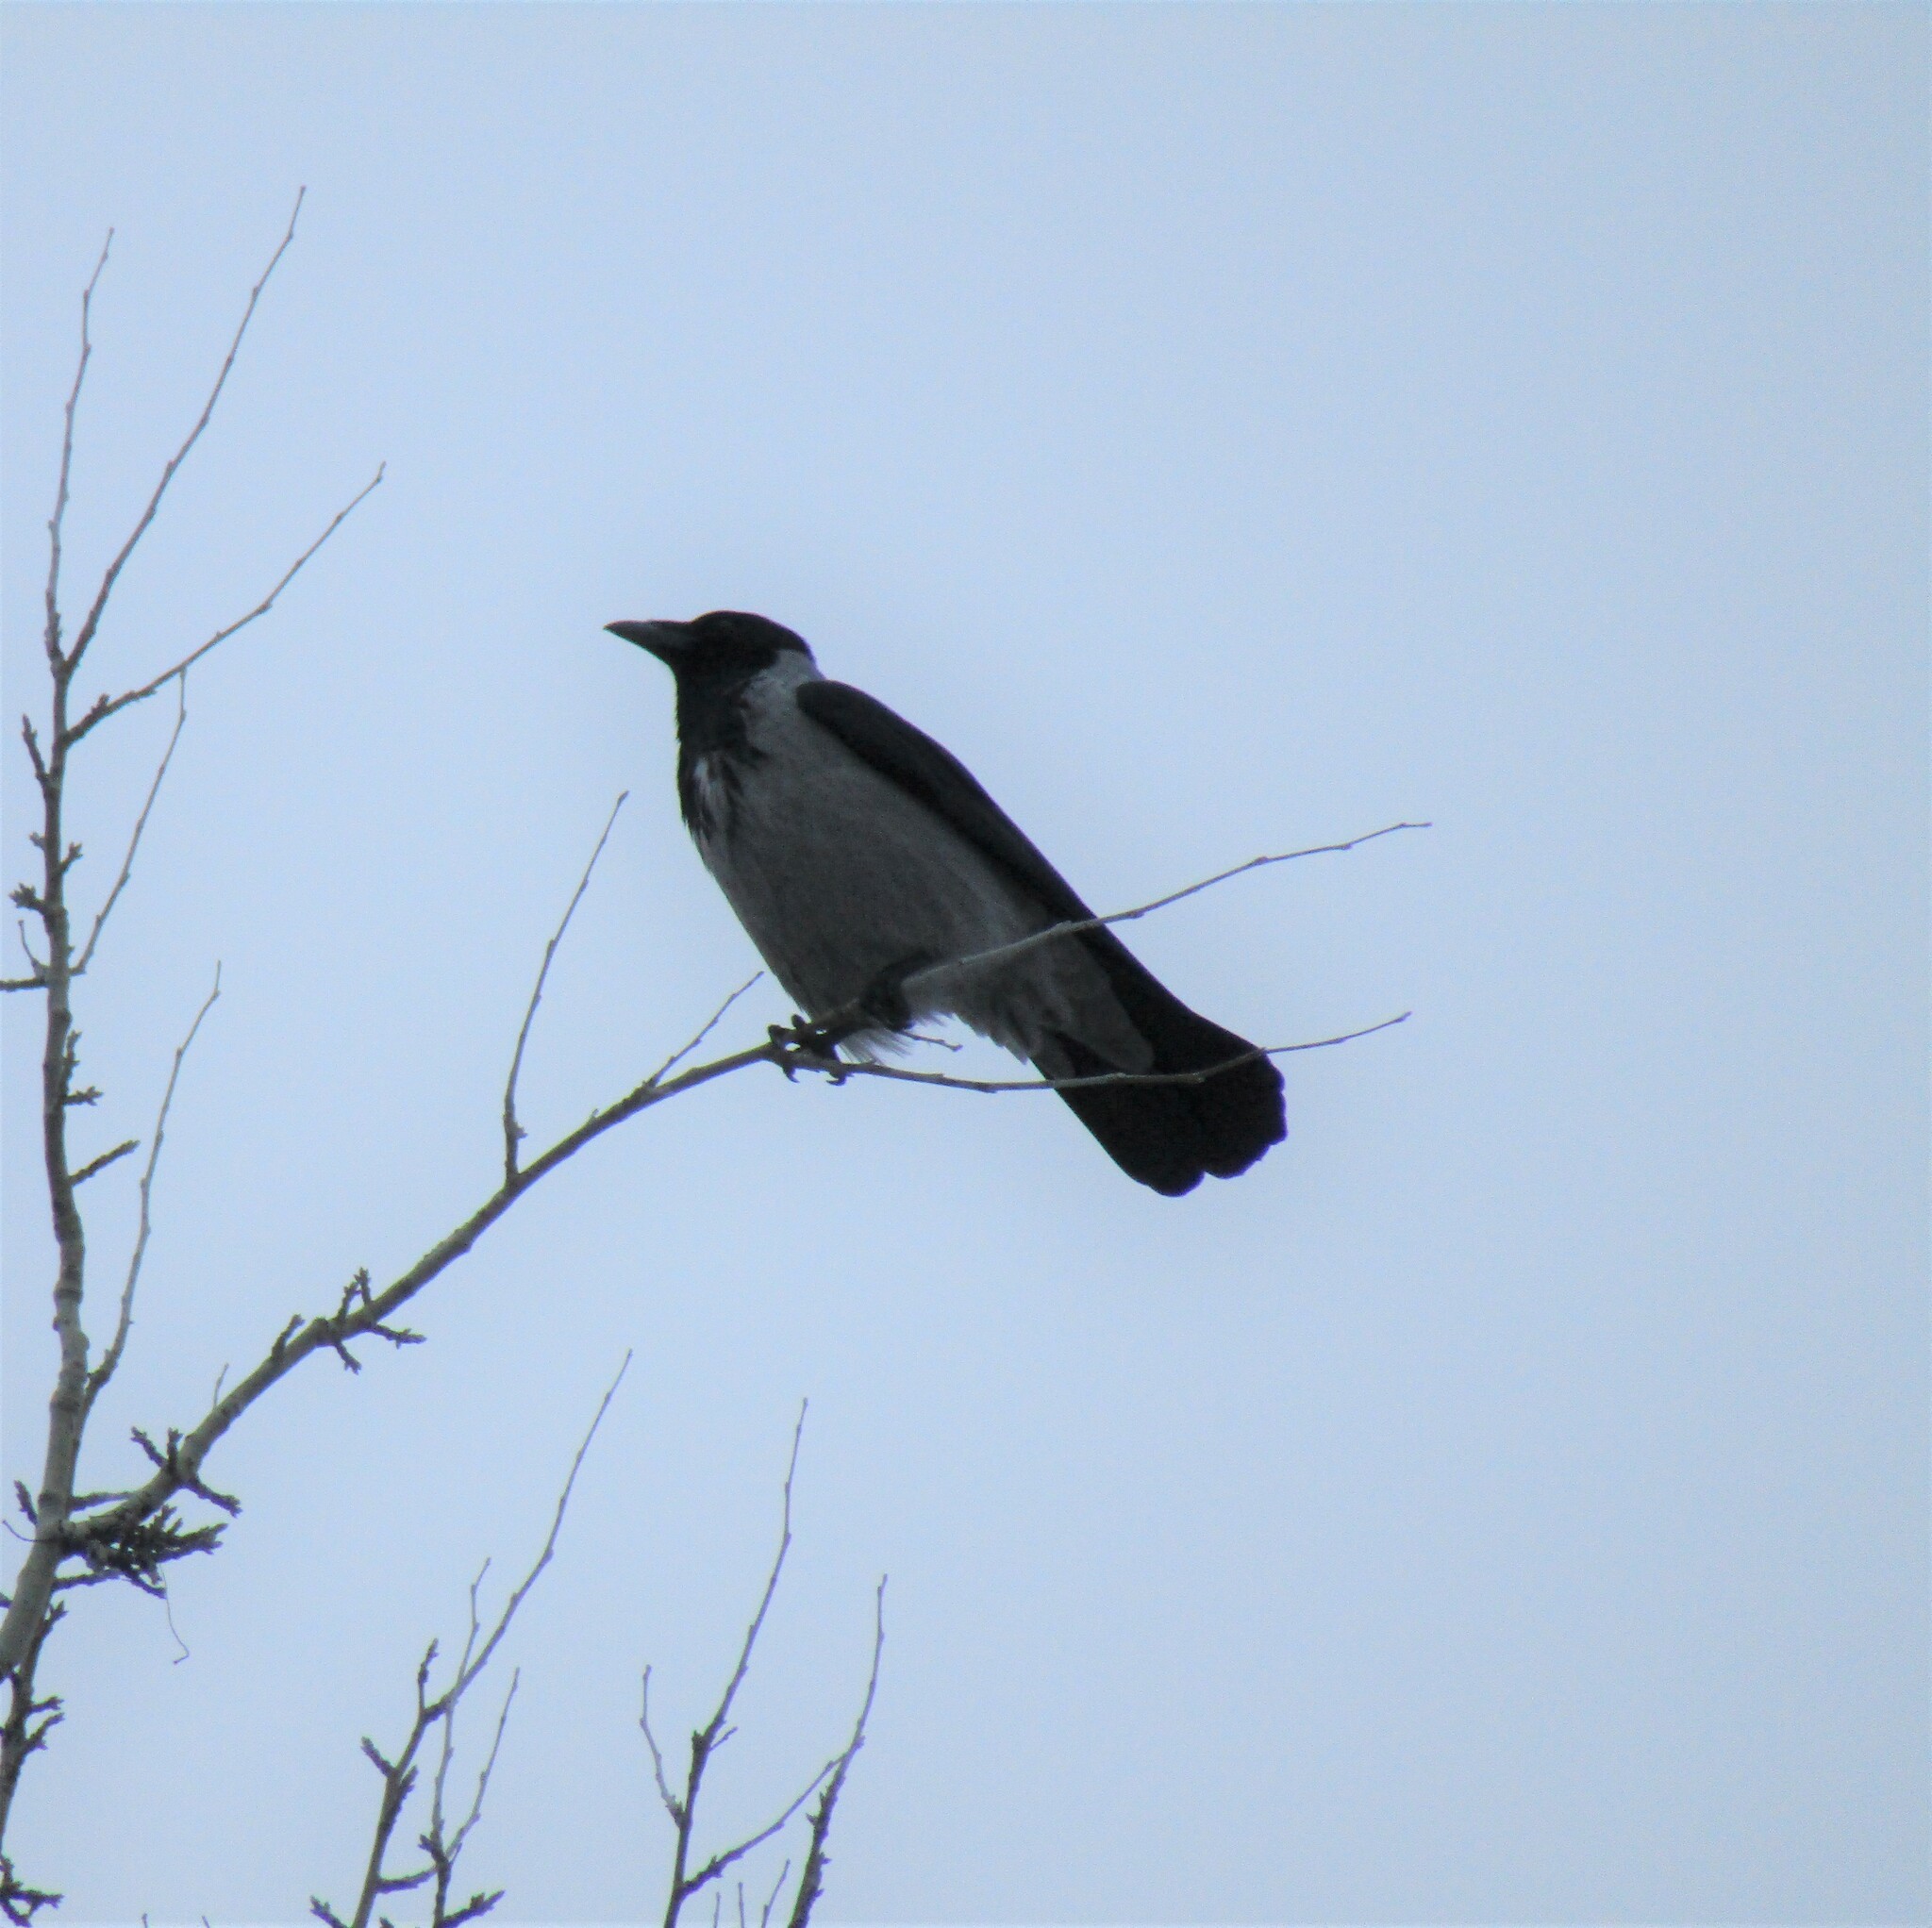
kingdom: Animalia
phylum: Chordata
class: Aves
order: Passeriformes
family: Corvidae
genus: Corvus
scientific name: Corvus cornix
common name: Hooded crow
